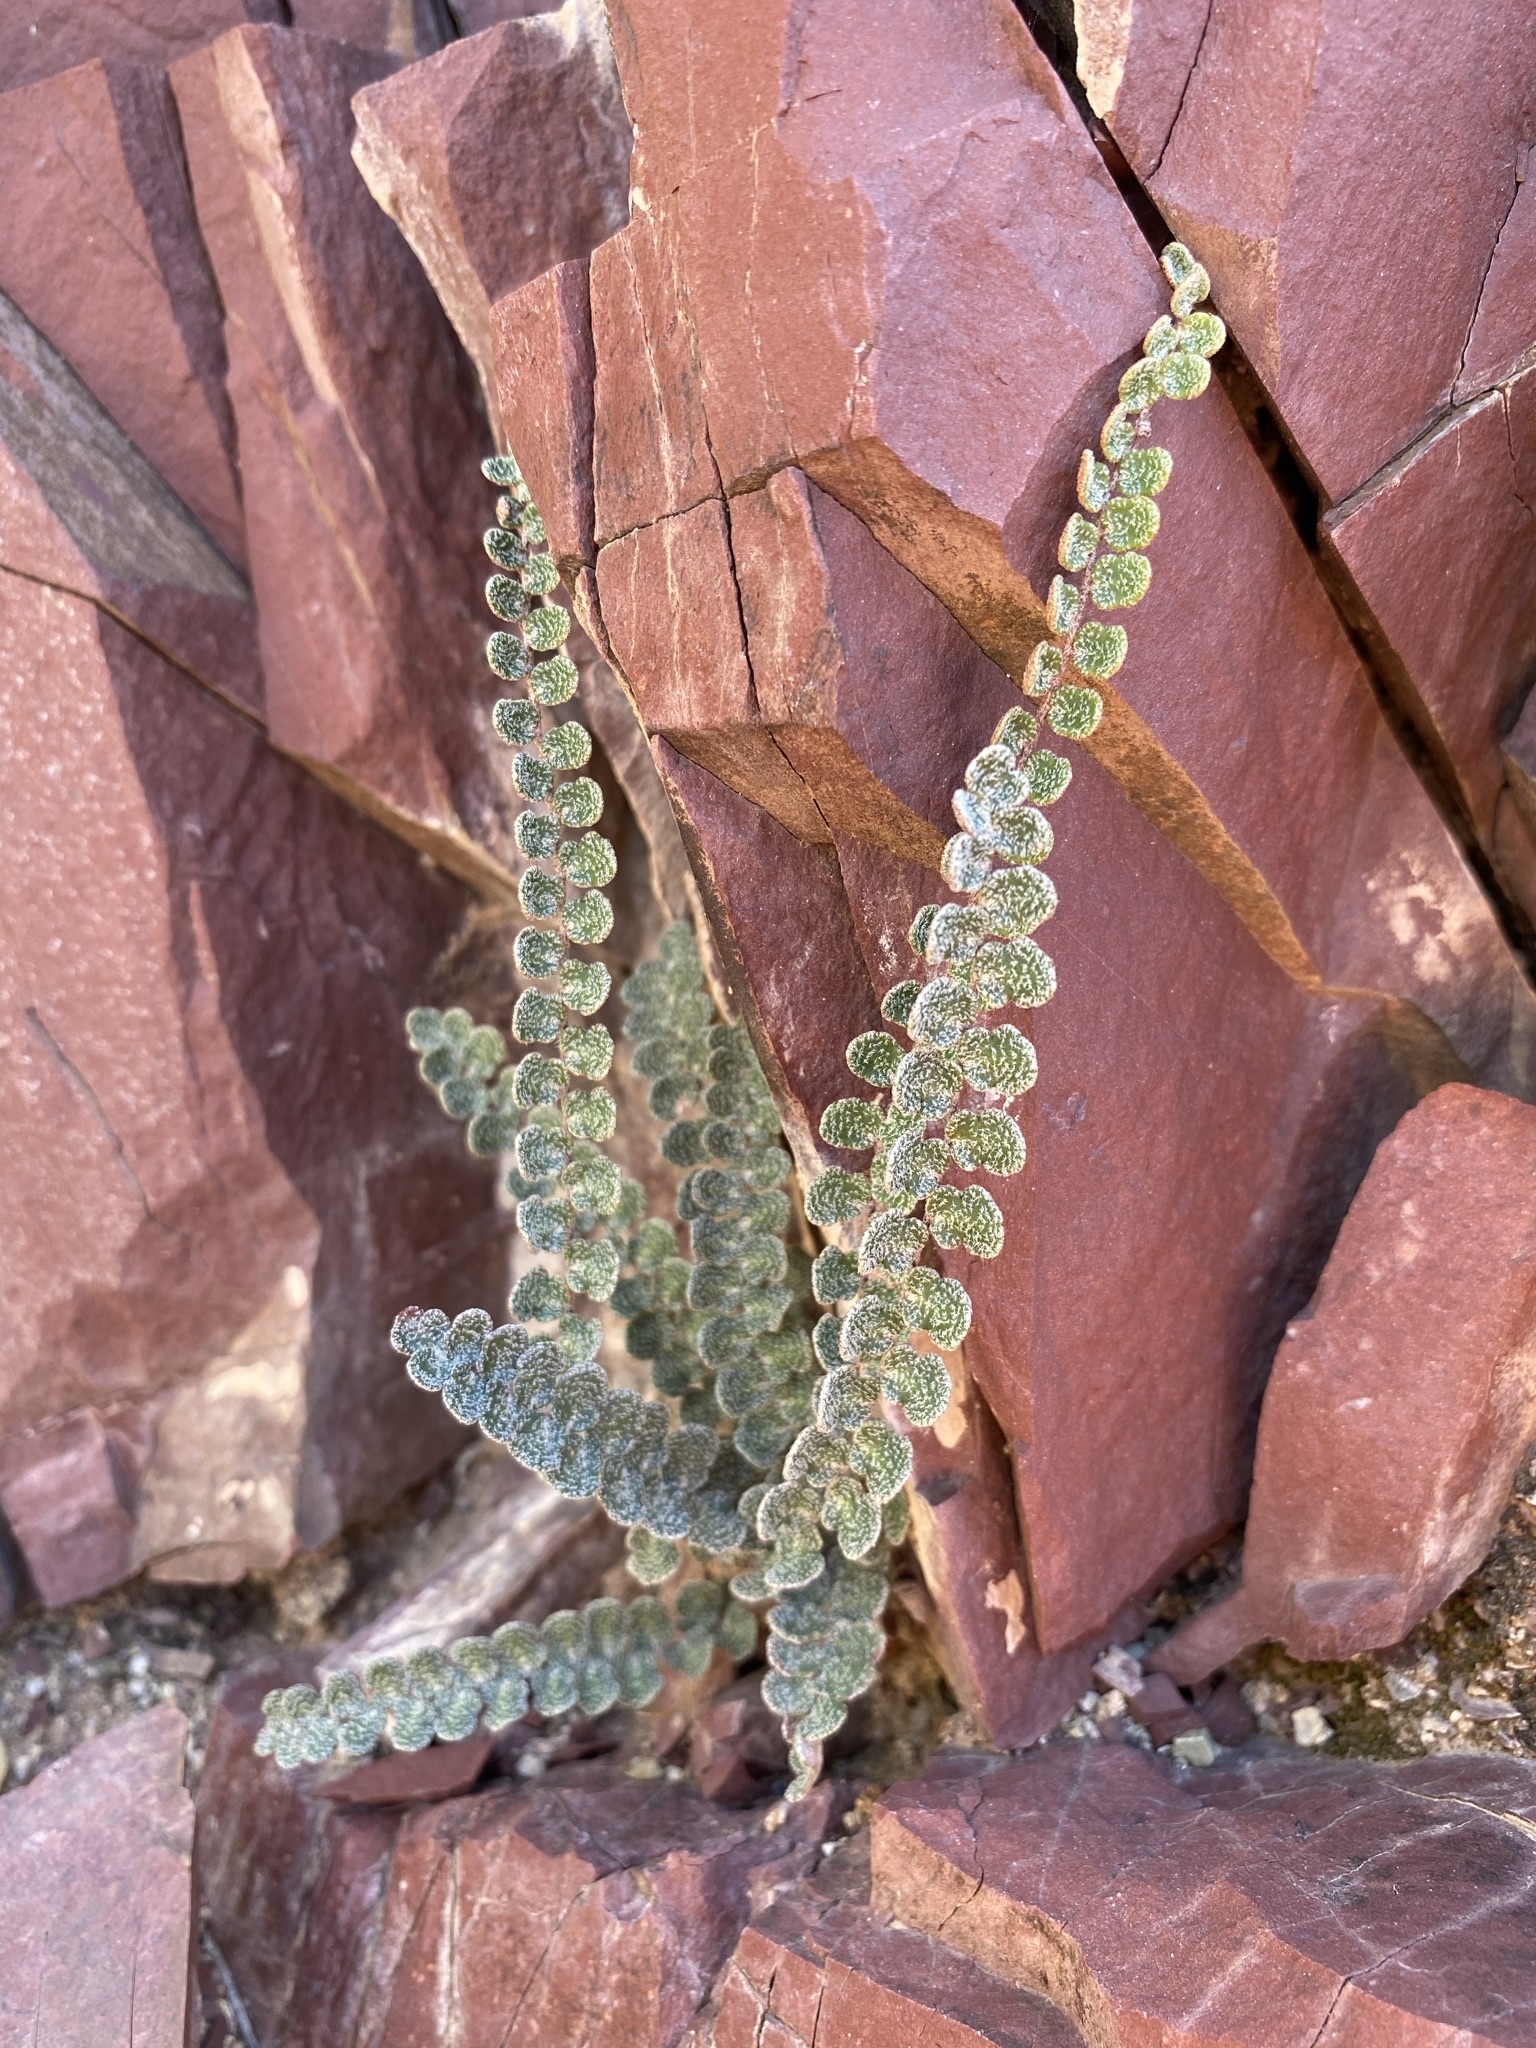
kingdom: Plantae
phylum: Tracheophyta
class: Polypodiopsida
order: Polypodiales
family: Pteridaceae
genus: Astrolepis
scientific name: Astrolepis cochisensis
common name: Scaly cloak fern
